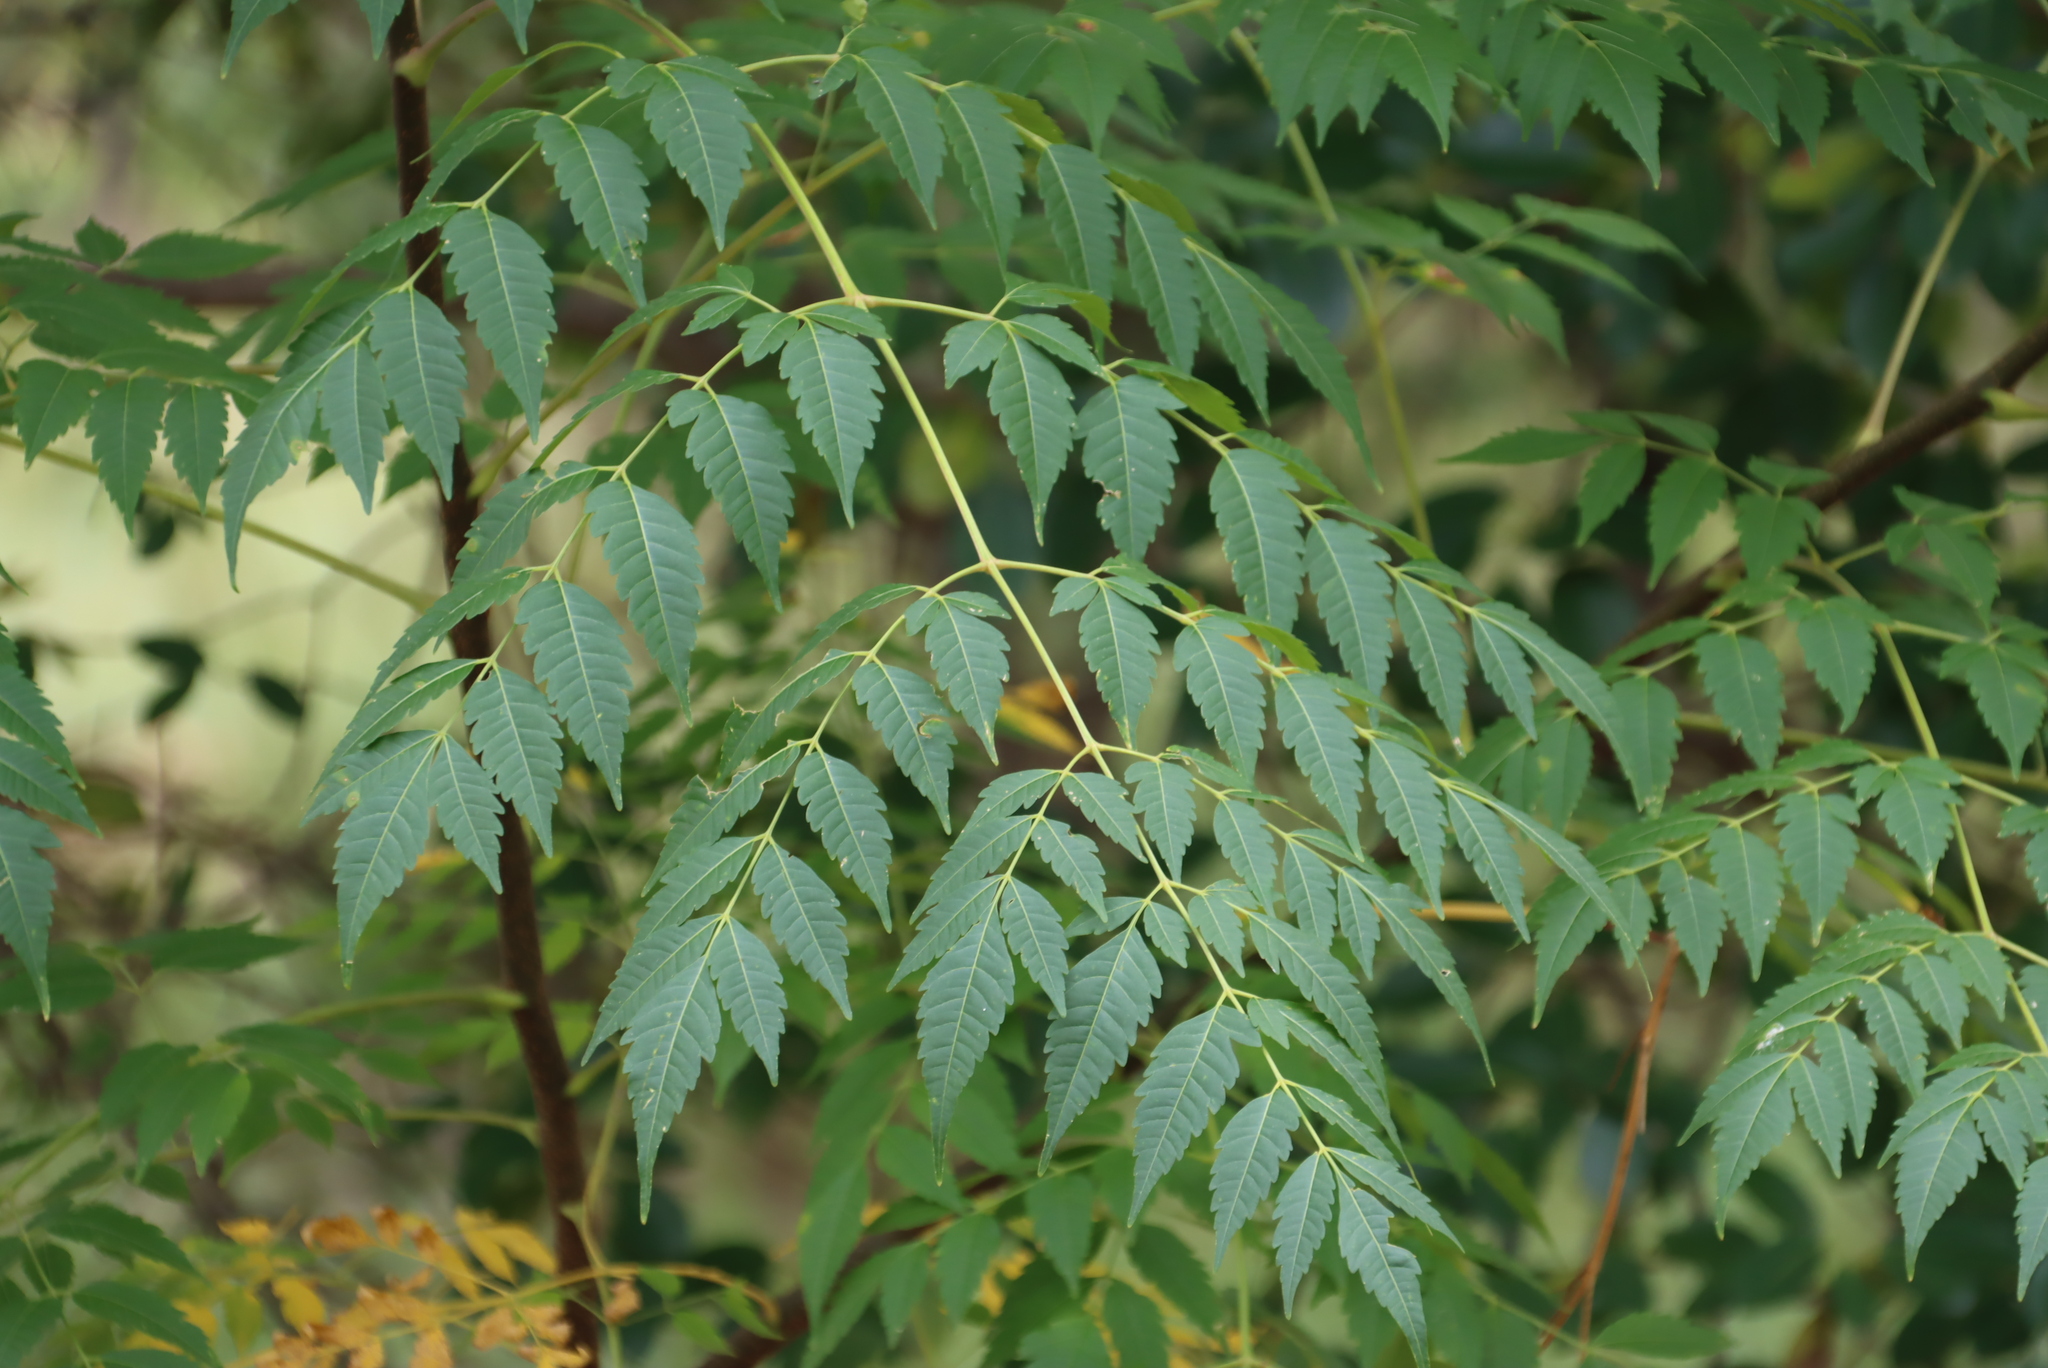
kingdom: Plantae
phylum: Tracheophyta
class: Magnoliopsida
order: Sapindales
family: Meliaceae
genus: Melia
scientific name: Melia azedarach
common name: Chinaberrytree
